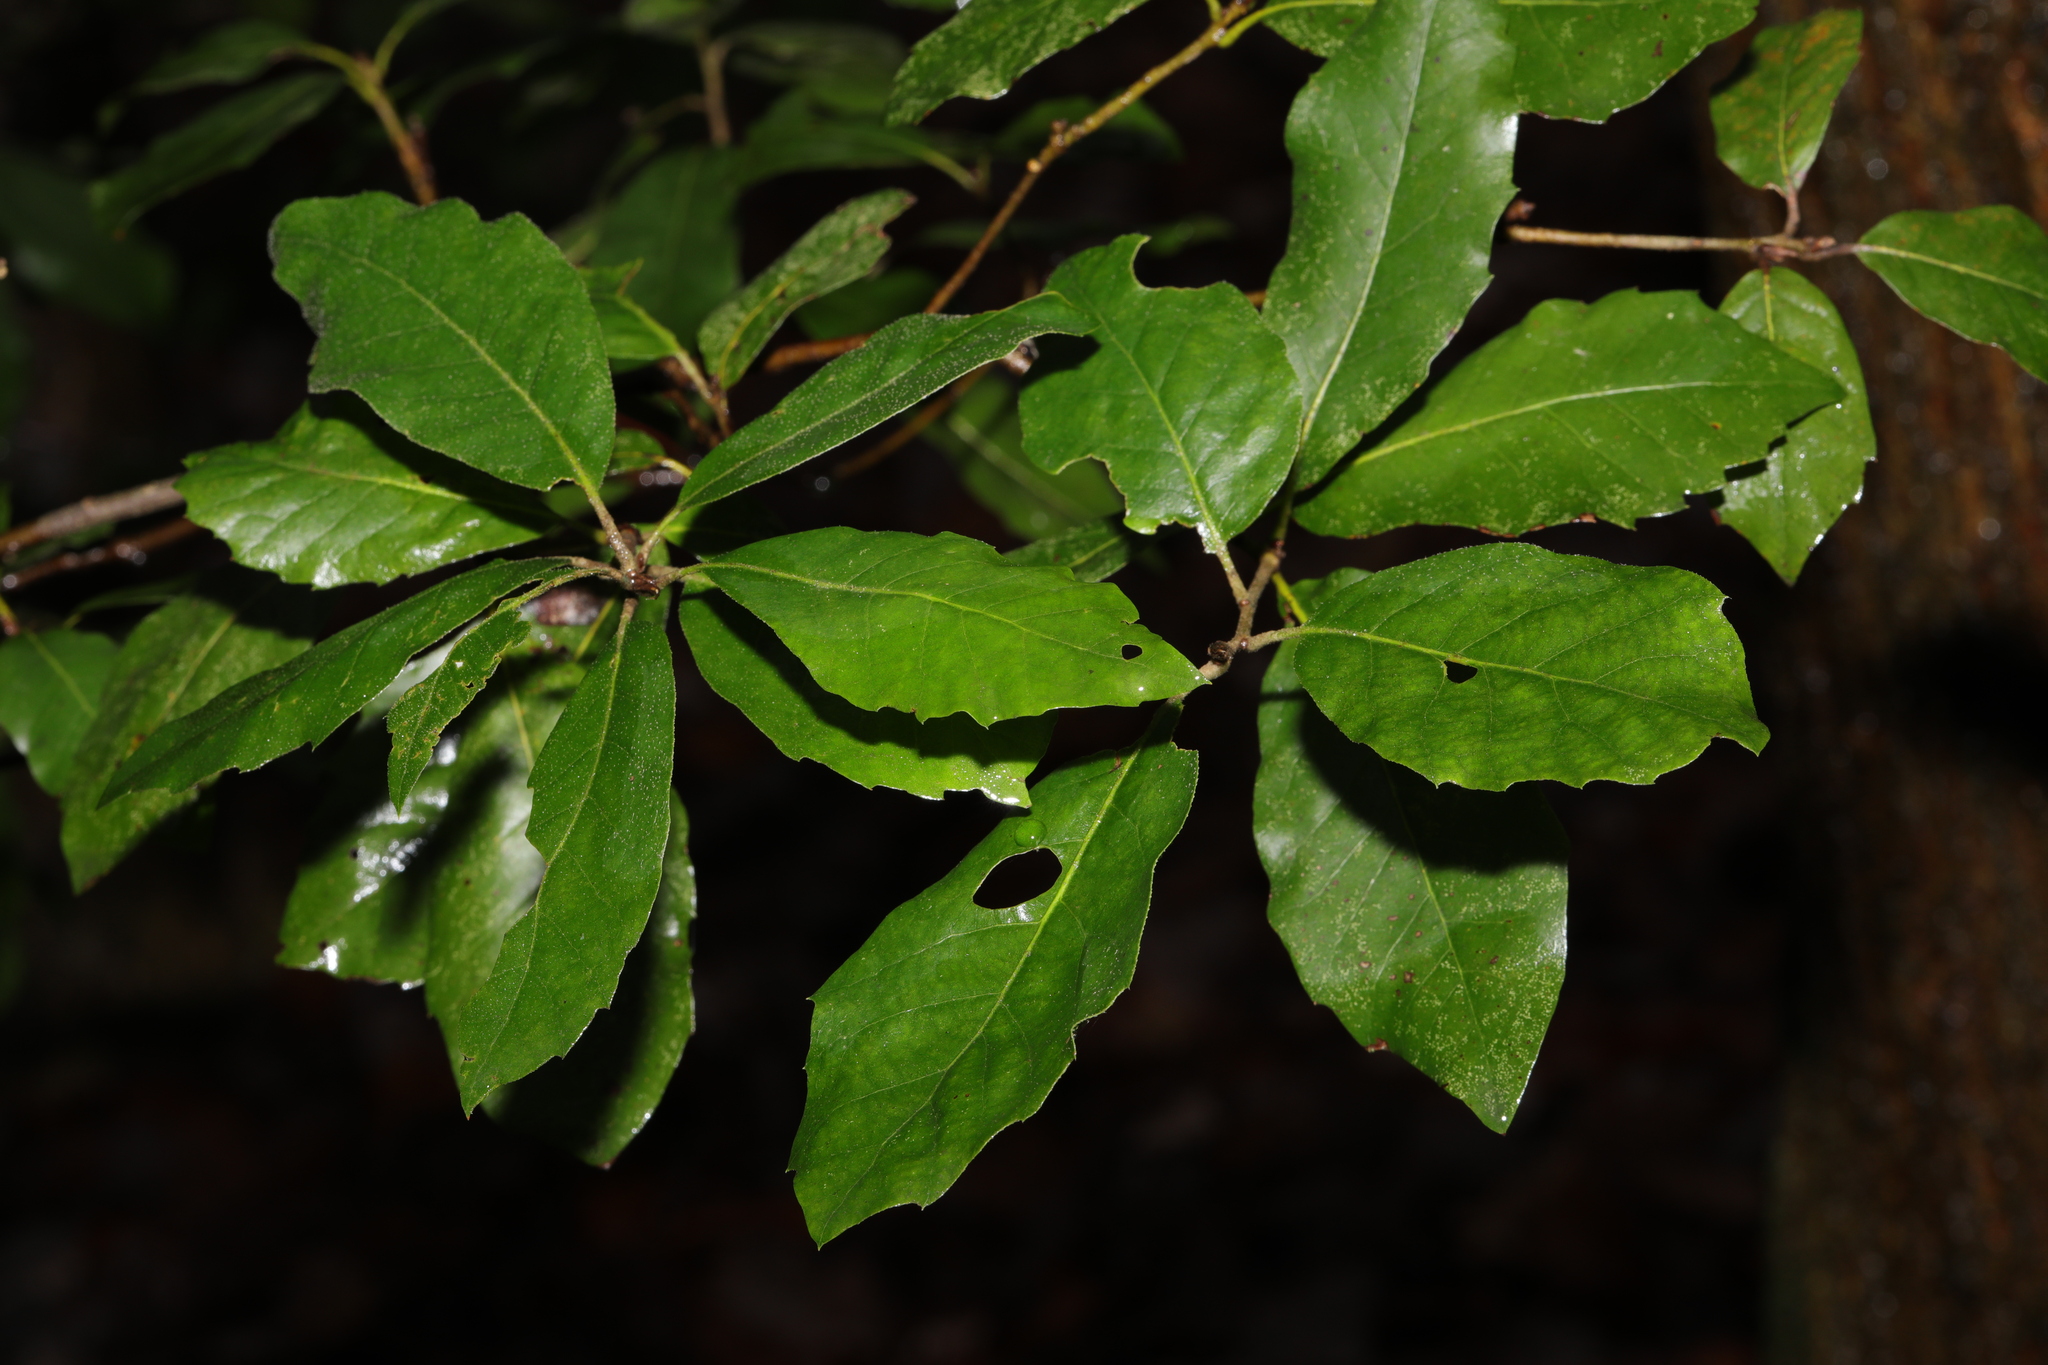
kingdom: Plantae
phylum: Tracheophyta
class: Magnoliopsida
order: Fagales
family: Fagaceae
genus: Quercus
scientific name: Quercus ilex
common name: Evergreen oak
